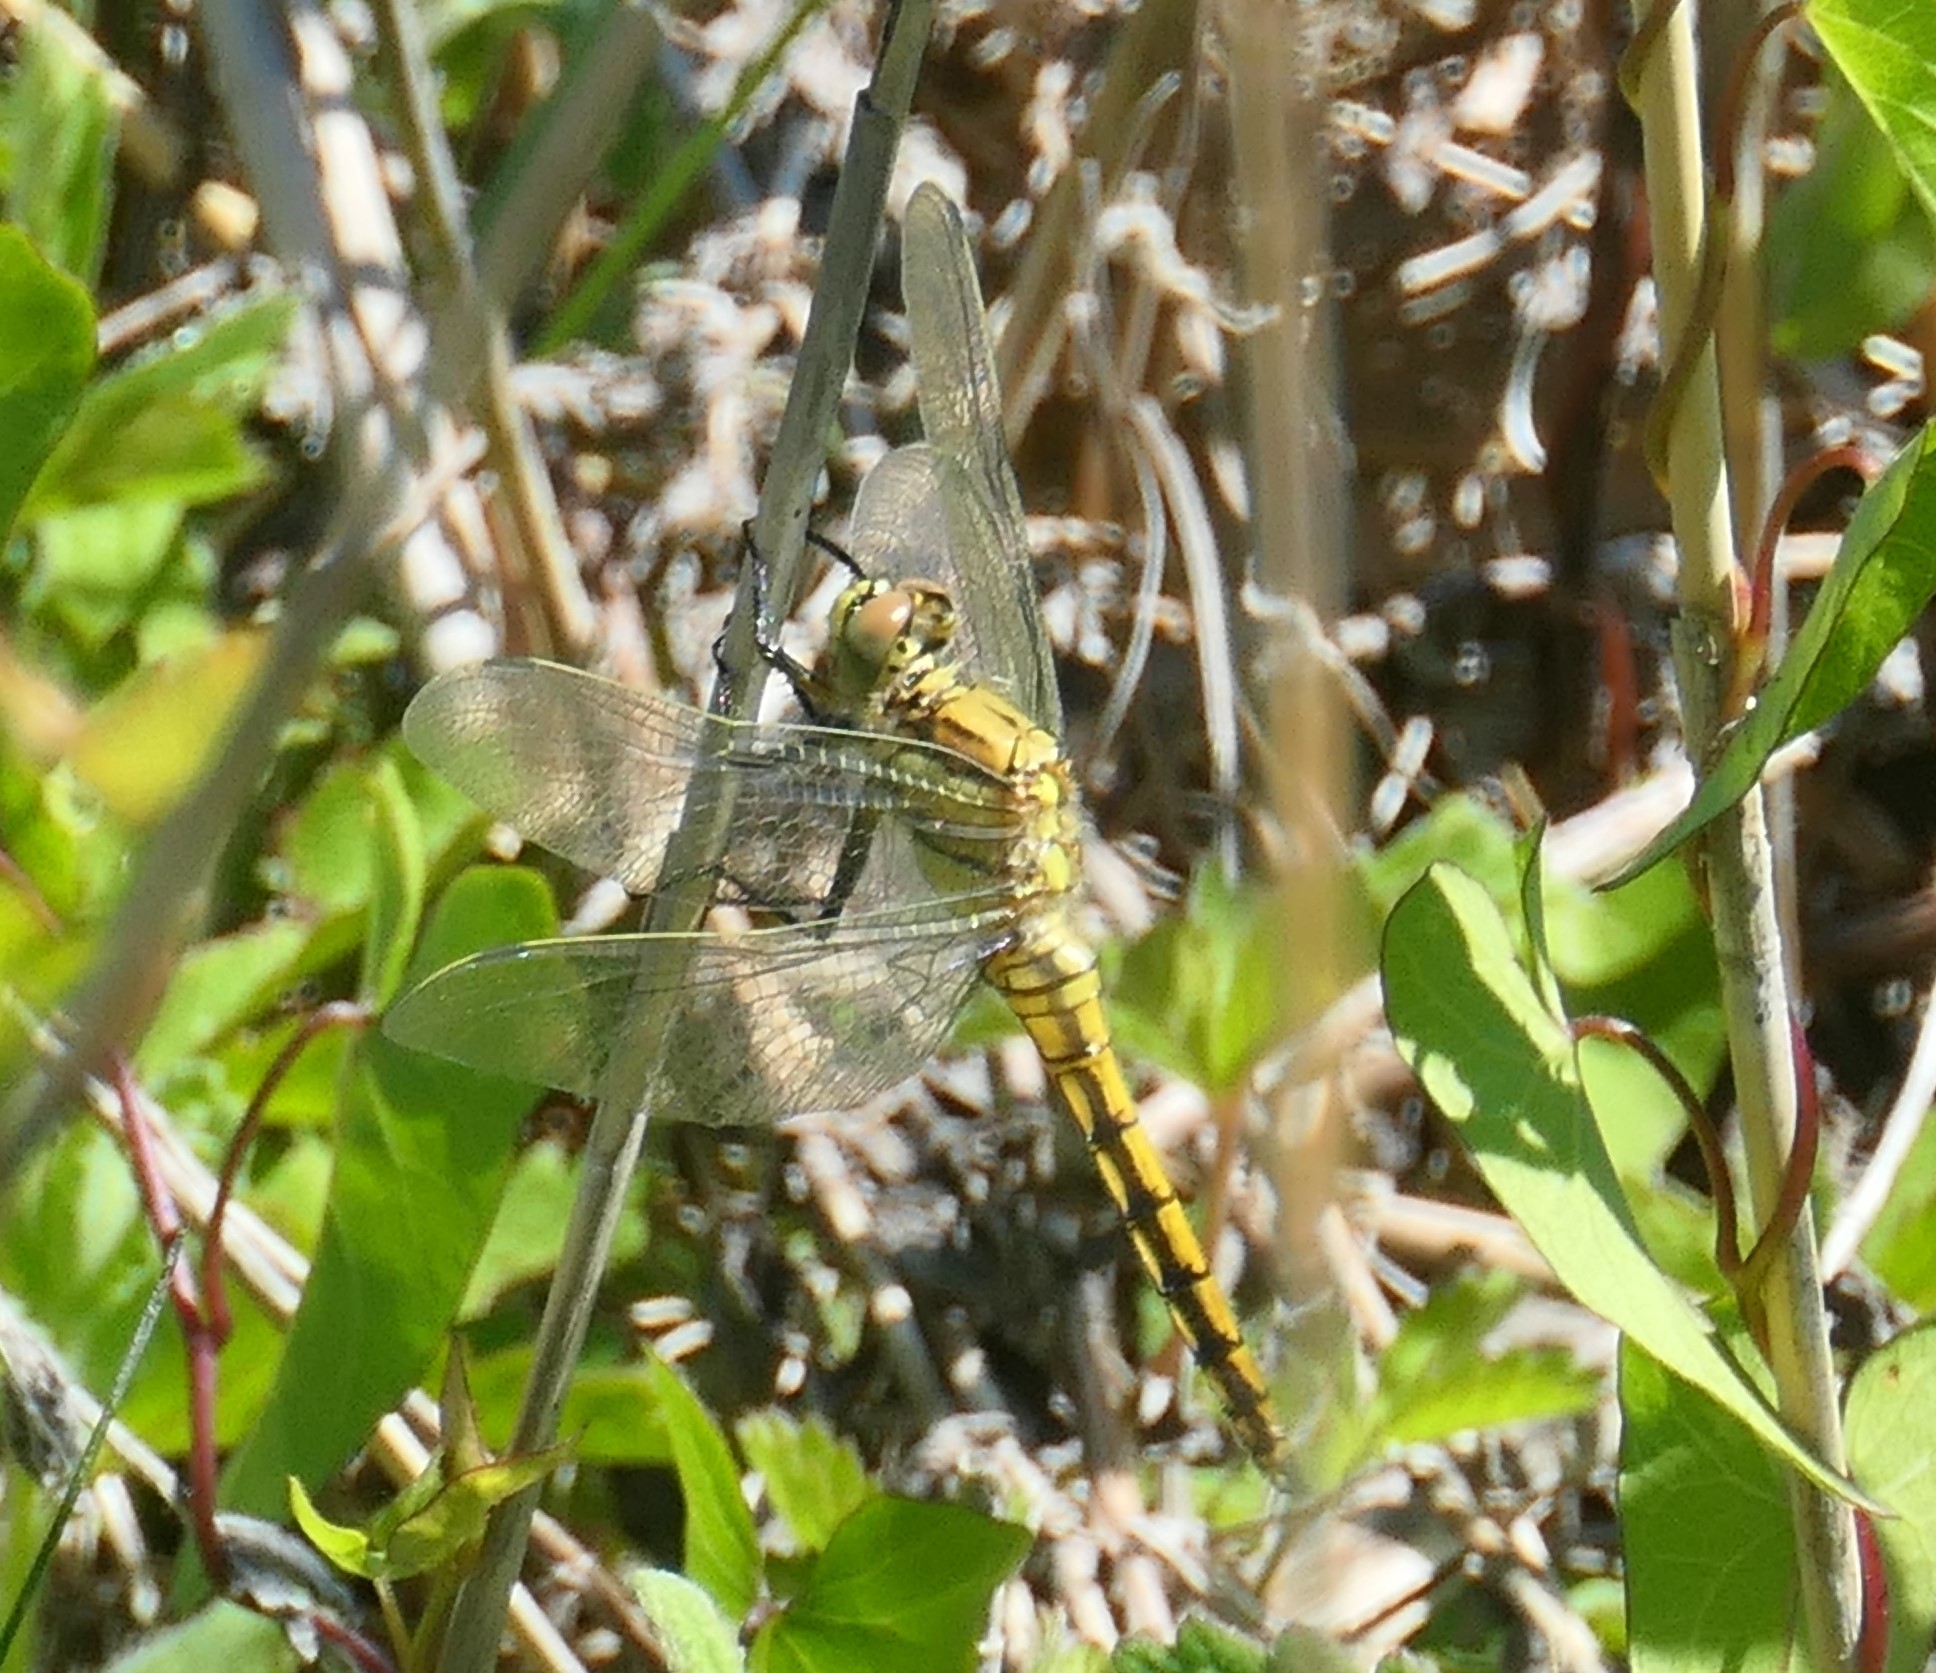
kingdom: Animalia
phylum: Arthropoda
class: Insecta
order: Odonata
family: Libellulidae
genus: Orthetrum
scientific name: Orthetrum cancellatum
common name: Black-tailed skimmer
